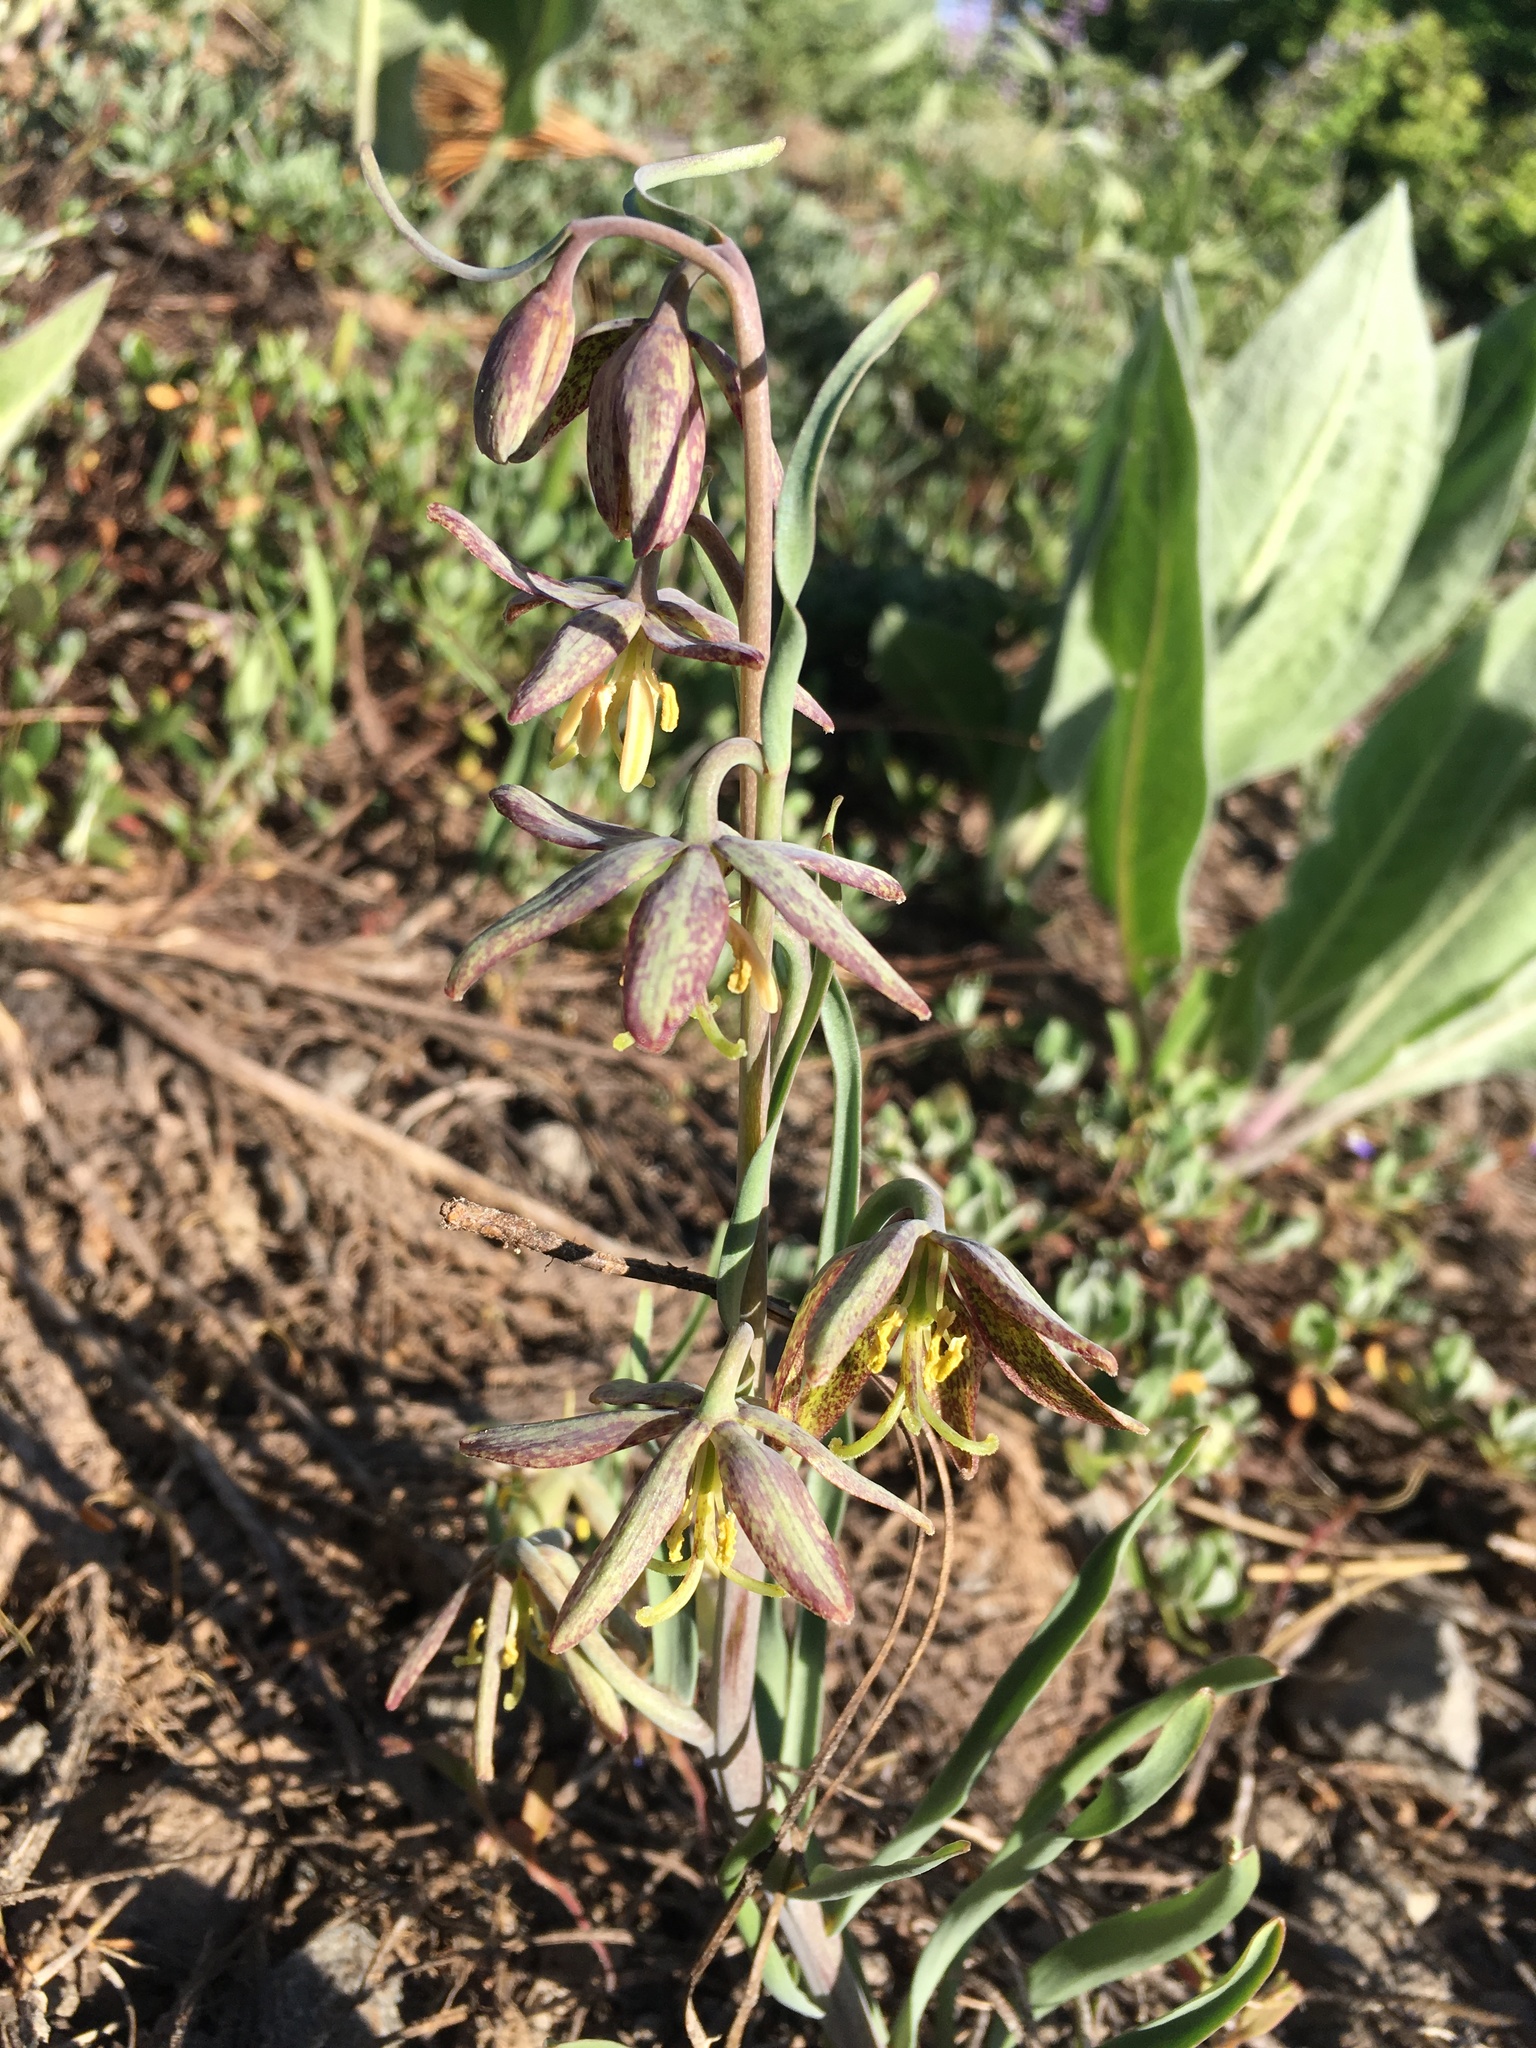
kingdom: Plantae
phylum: Tracheophyta
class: Liliopsida
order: Liliales
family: Liliaceae
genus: Fritillaria
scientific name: Fritillaria atropurpurea
